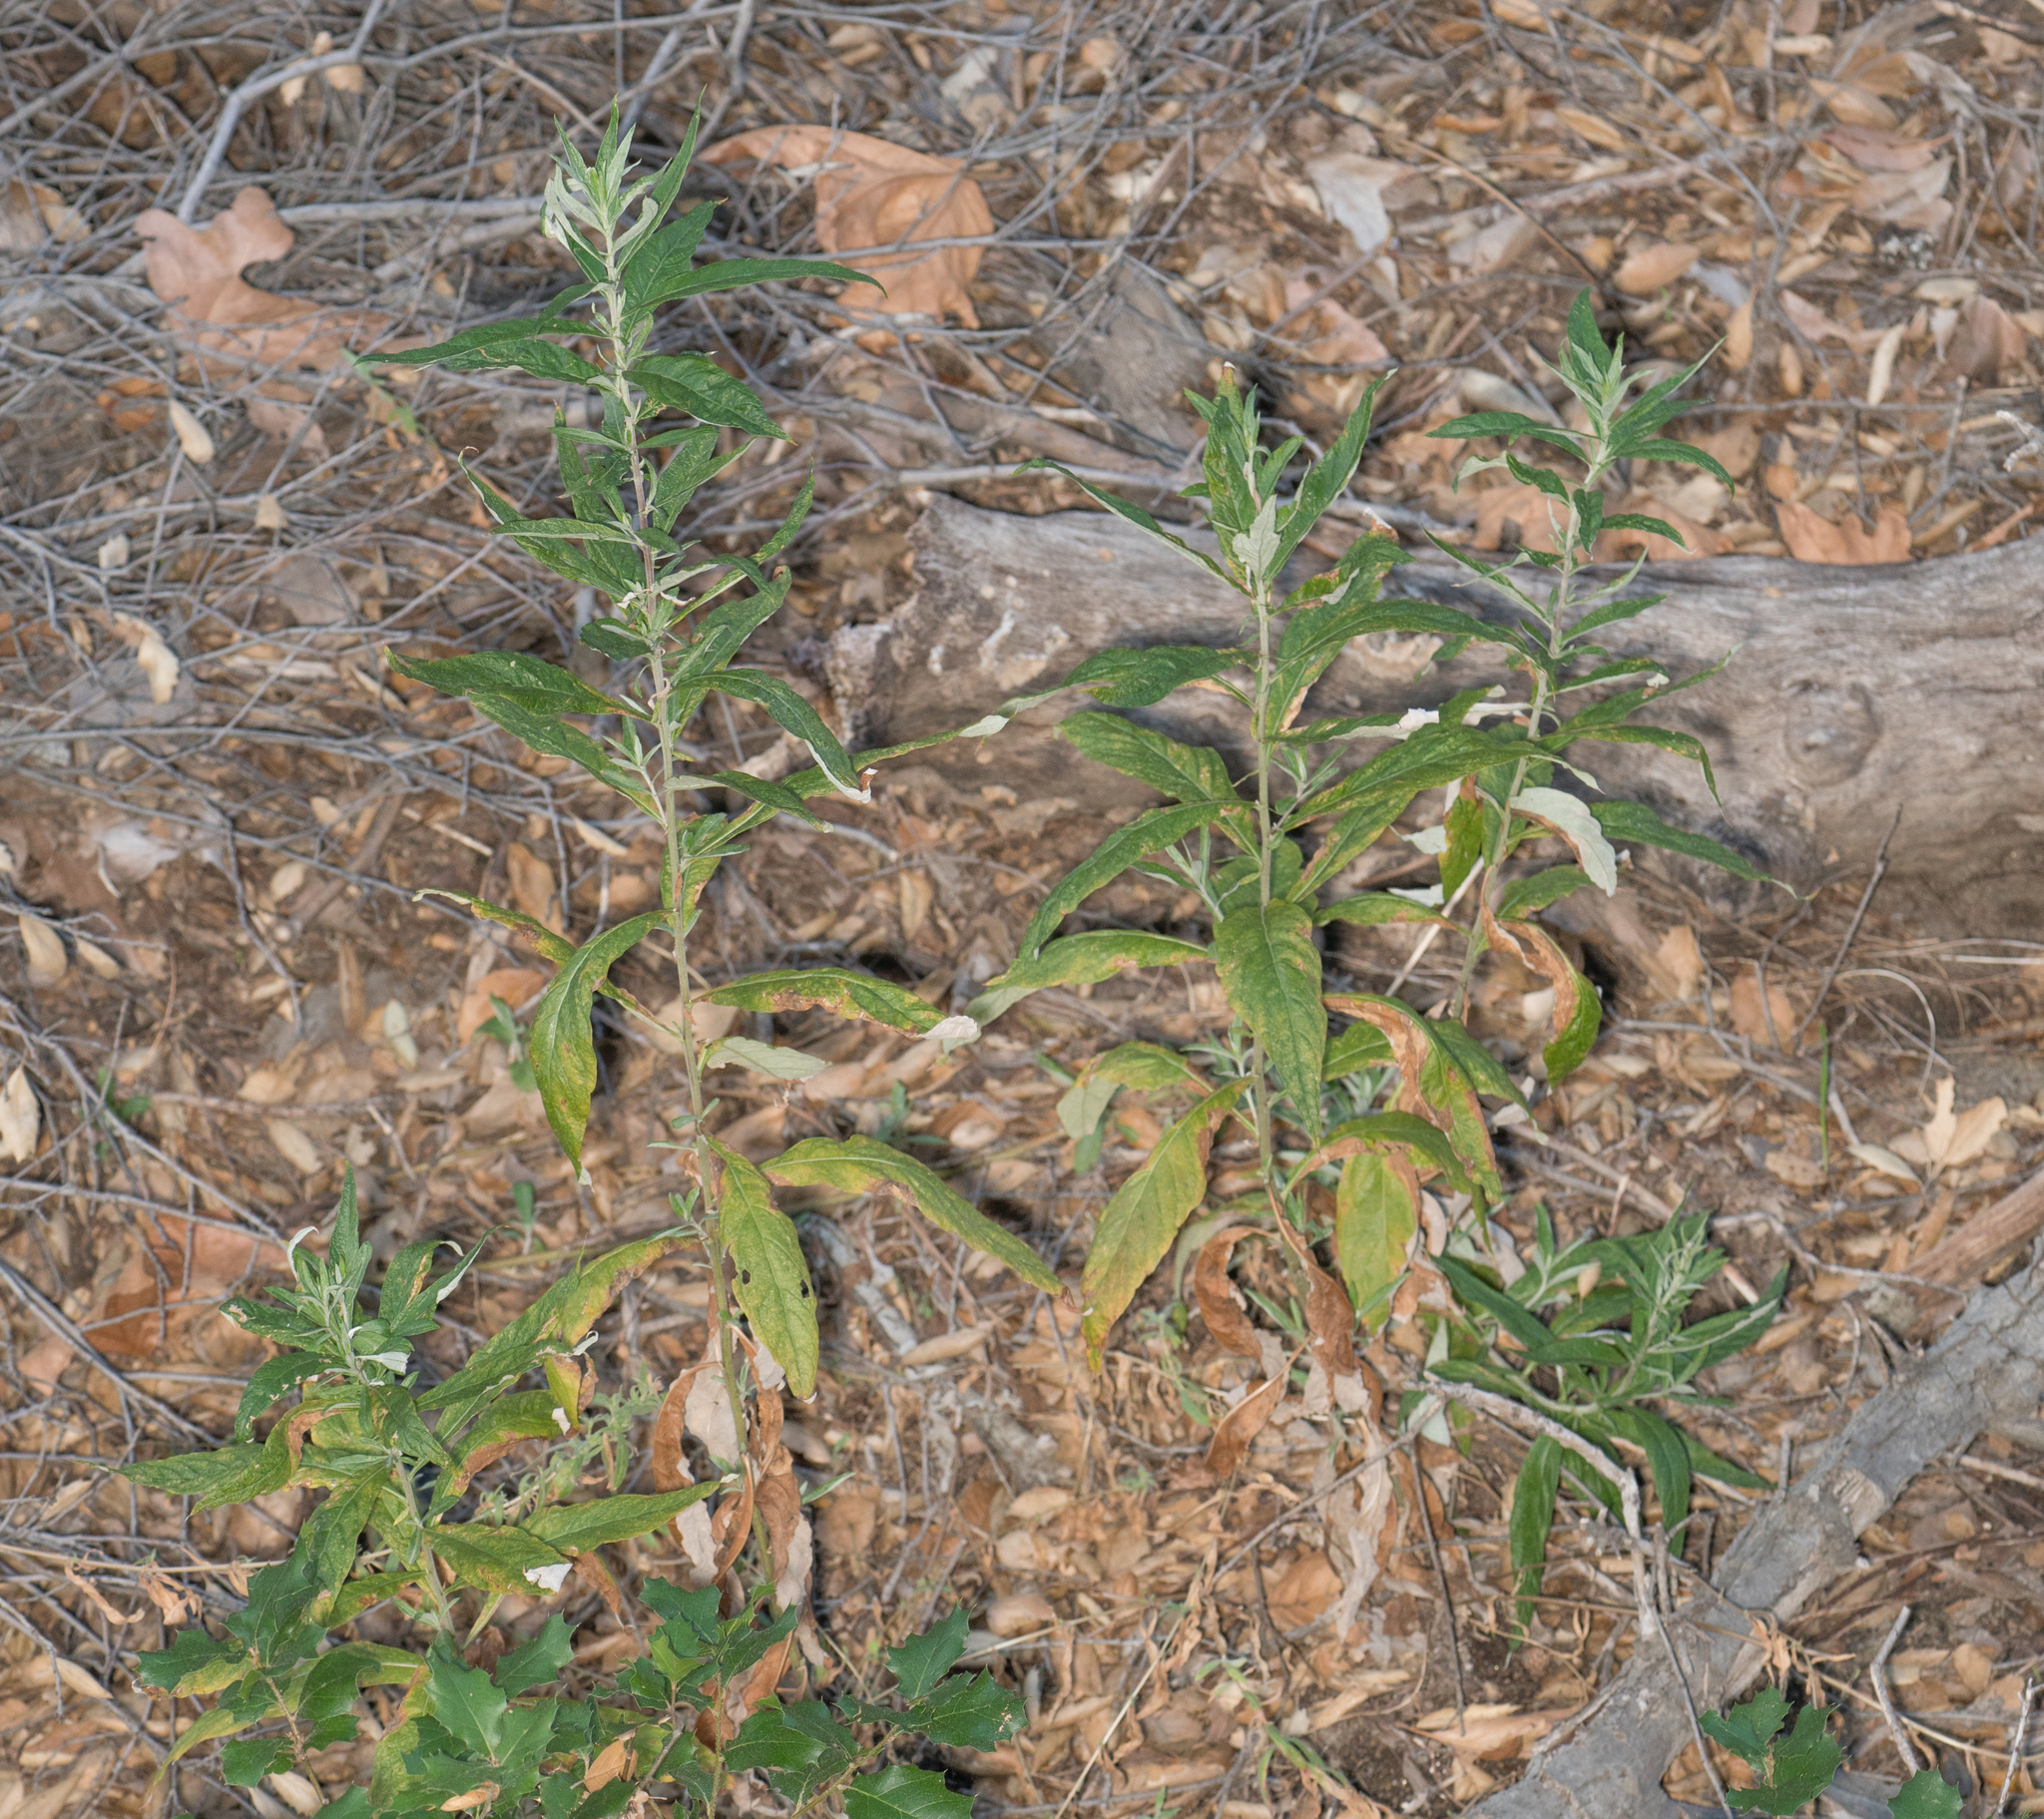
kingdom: Plantae
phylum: Tracheophyta
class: Magnoliopsida
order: Asterales
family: Asteraceae
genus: Artemisia
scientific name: Artemisia douglasiana
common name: Northwest mugwort
